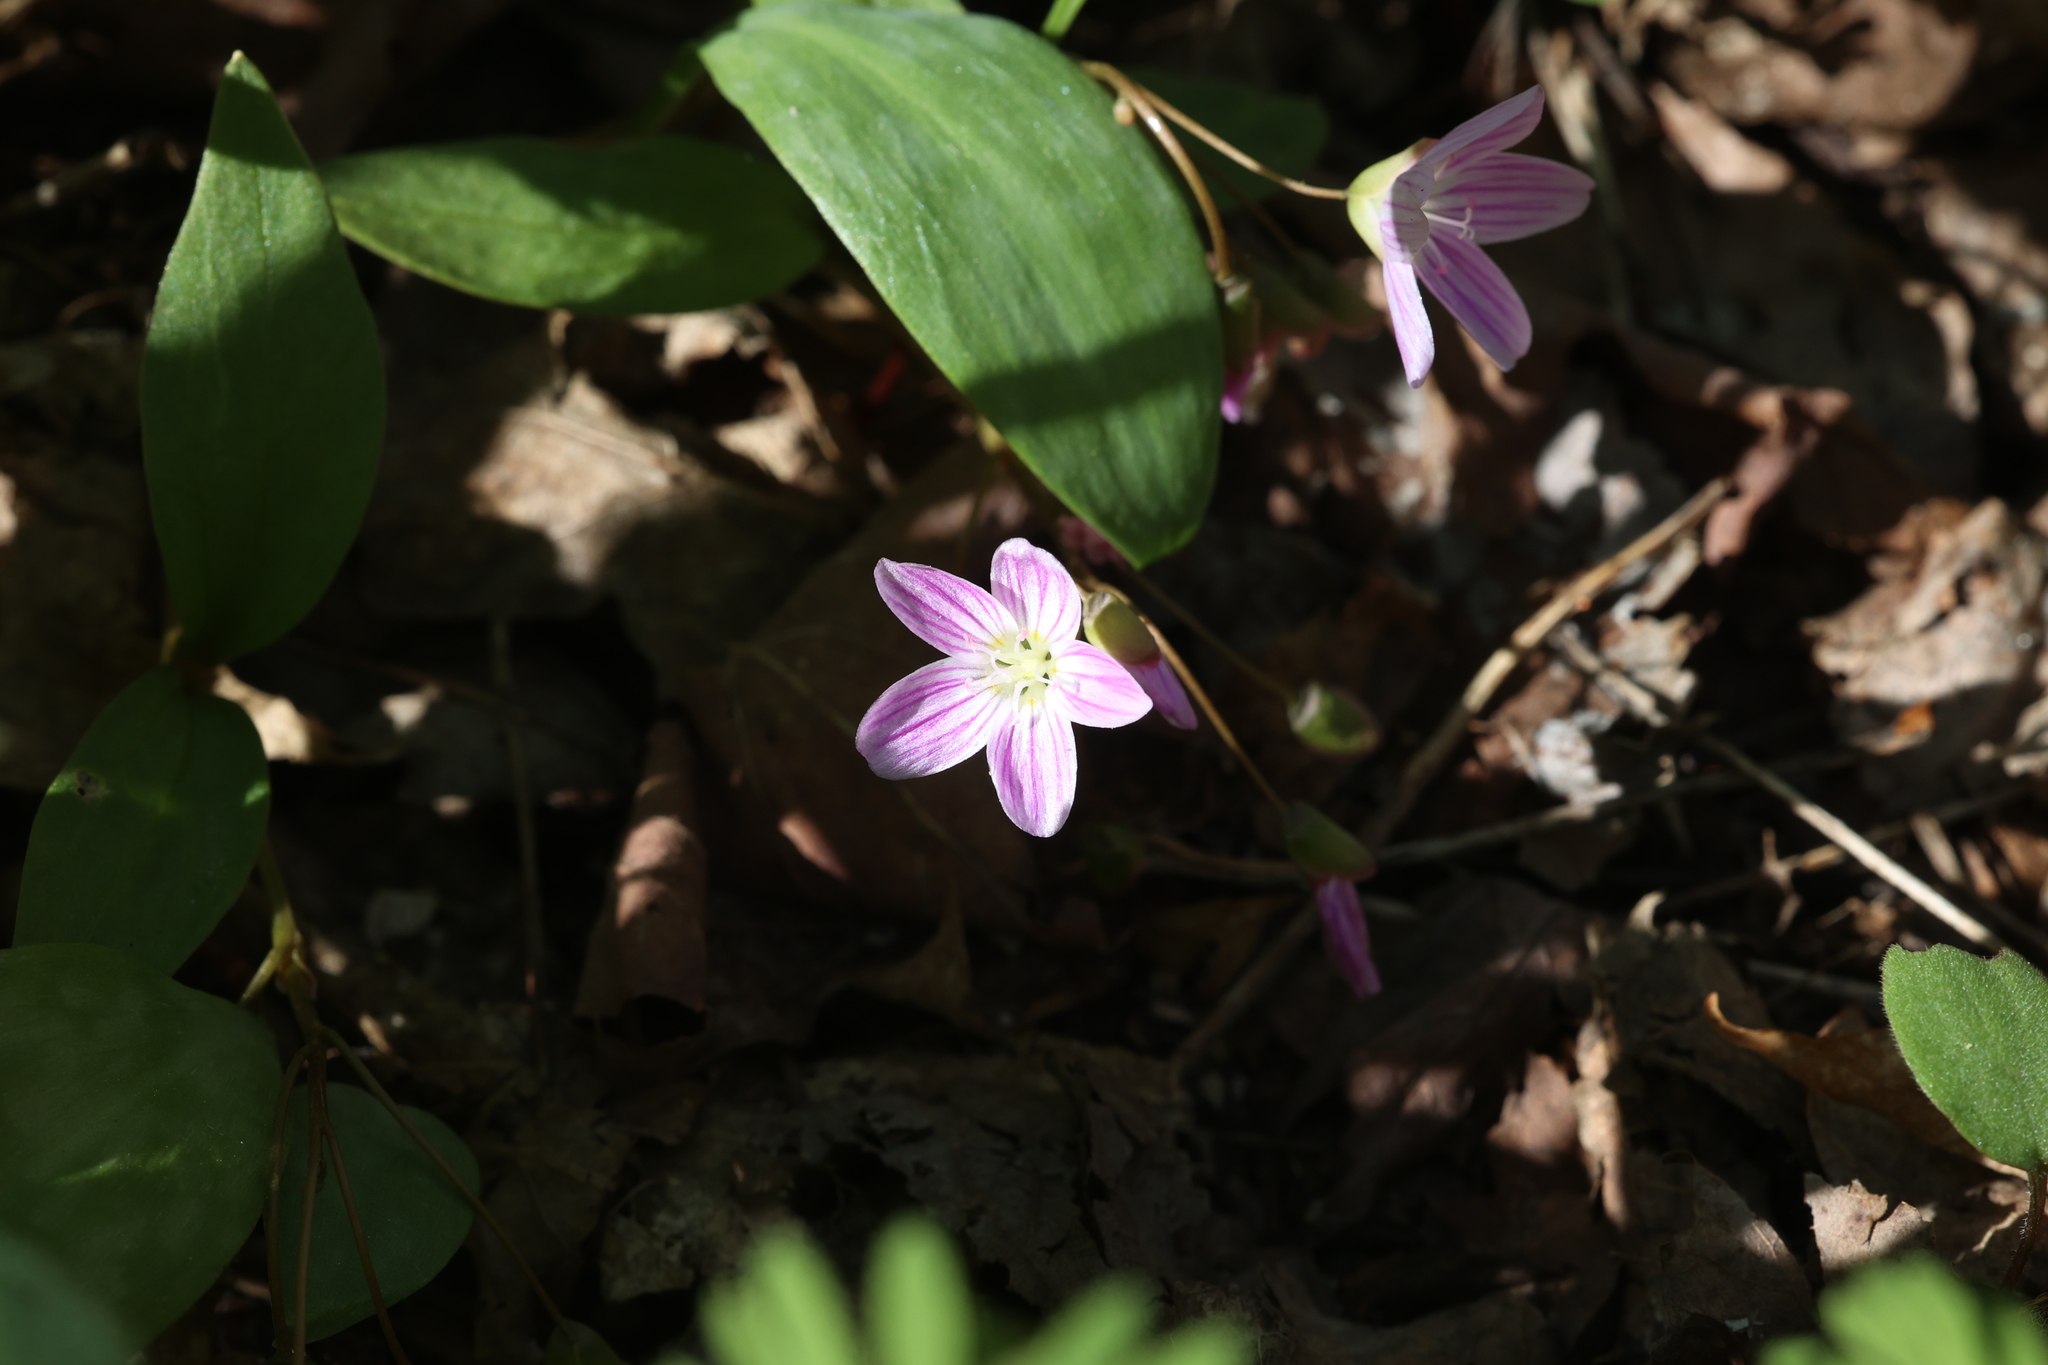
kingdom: Plantae
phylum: Tracheophyta
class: Magnoliopsida
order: Caryophyllales
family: Montiaceae
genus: Claytonia
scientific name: Claytonia caroliniana
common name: Carolina spring beauty
